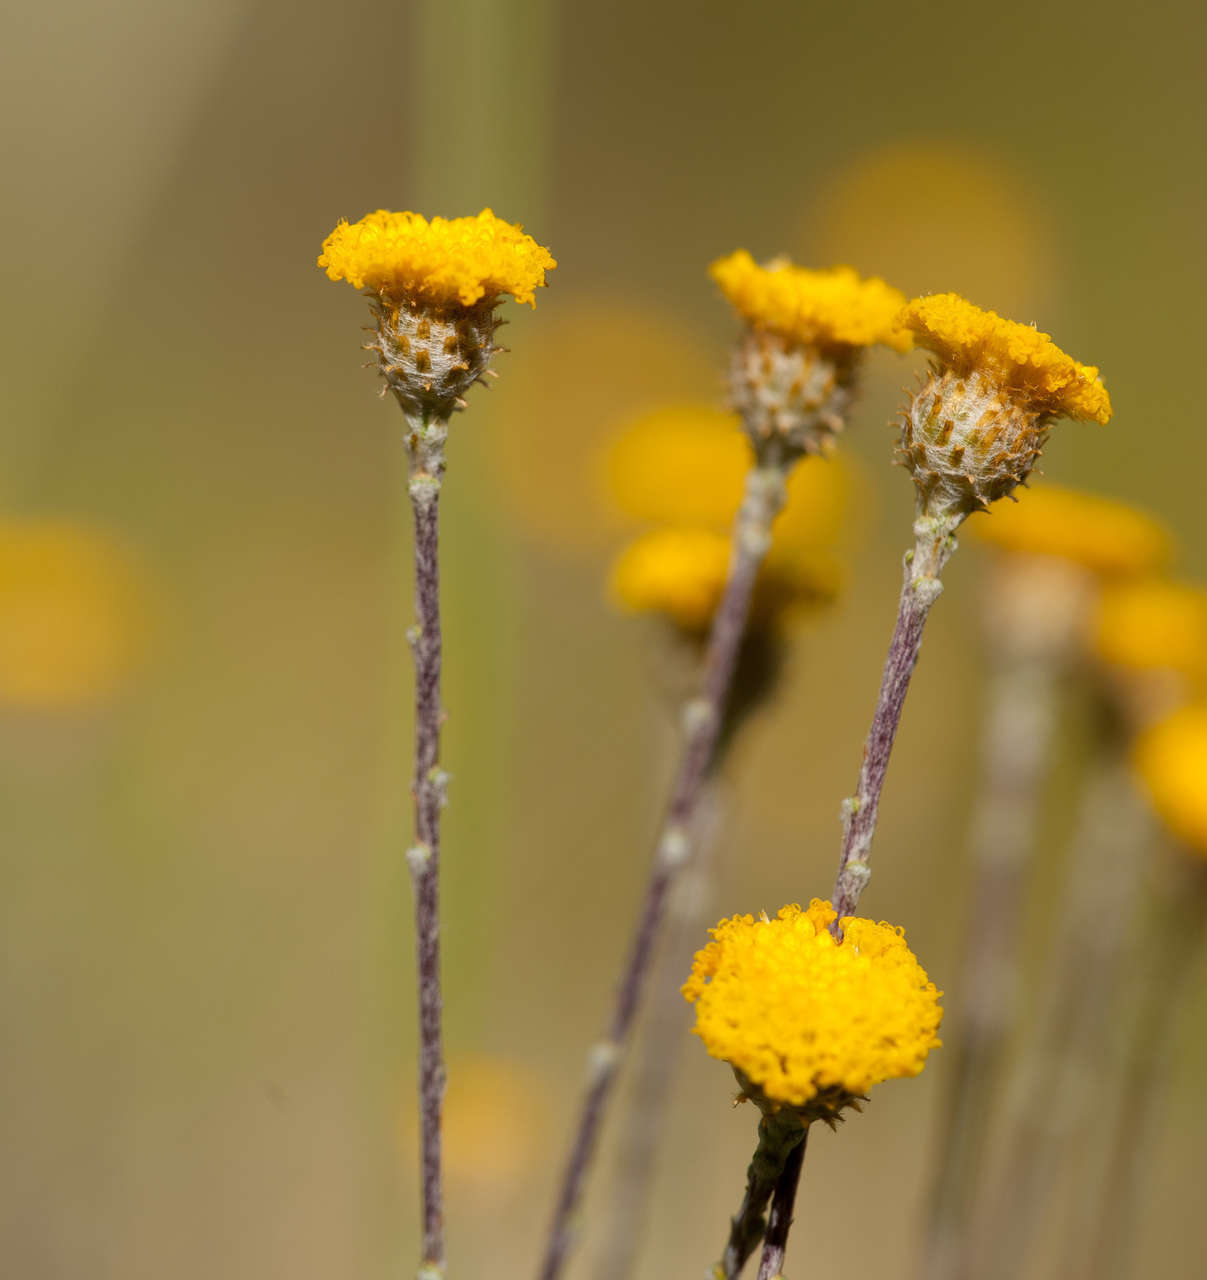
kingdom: Plantae
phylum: Tracheophyta
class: Magnoliopsida
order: Asterales
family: Asteraceae
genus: Leptorhynchos
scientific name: Leptorhynchos squamatus
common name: Scaly-buttons
